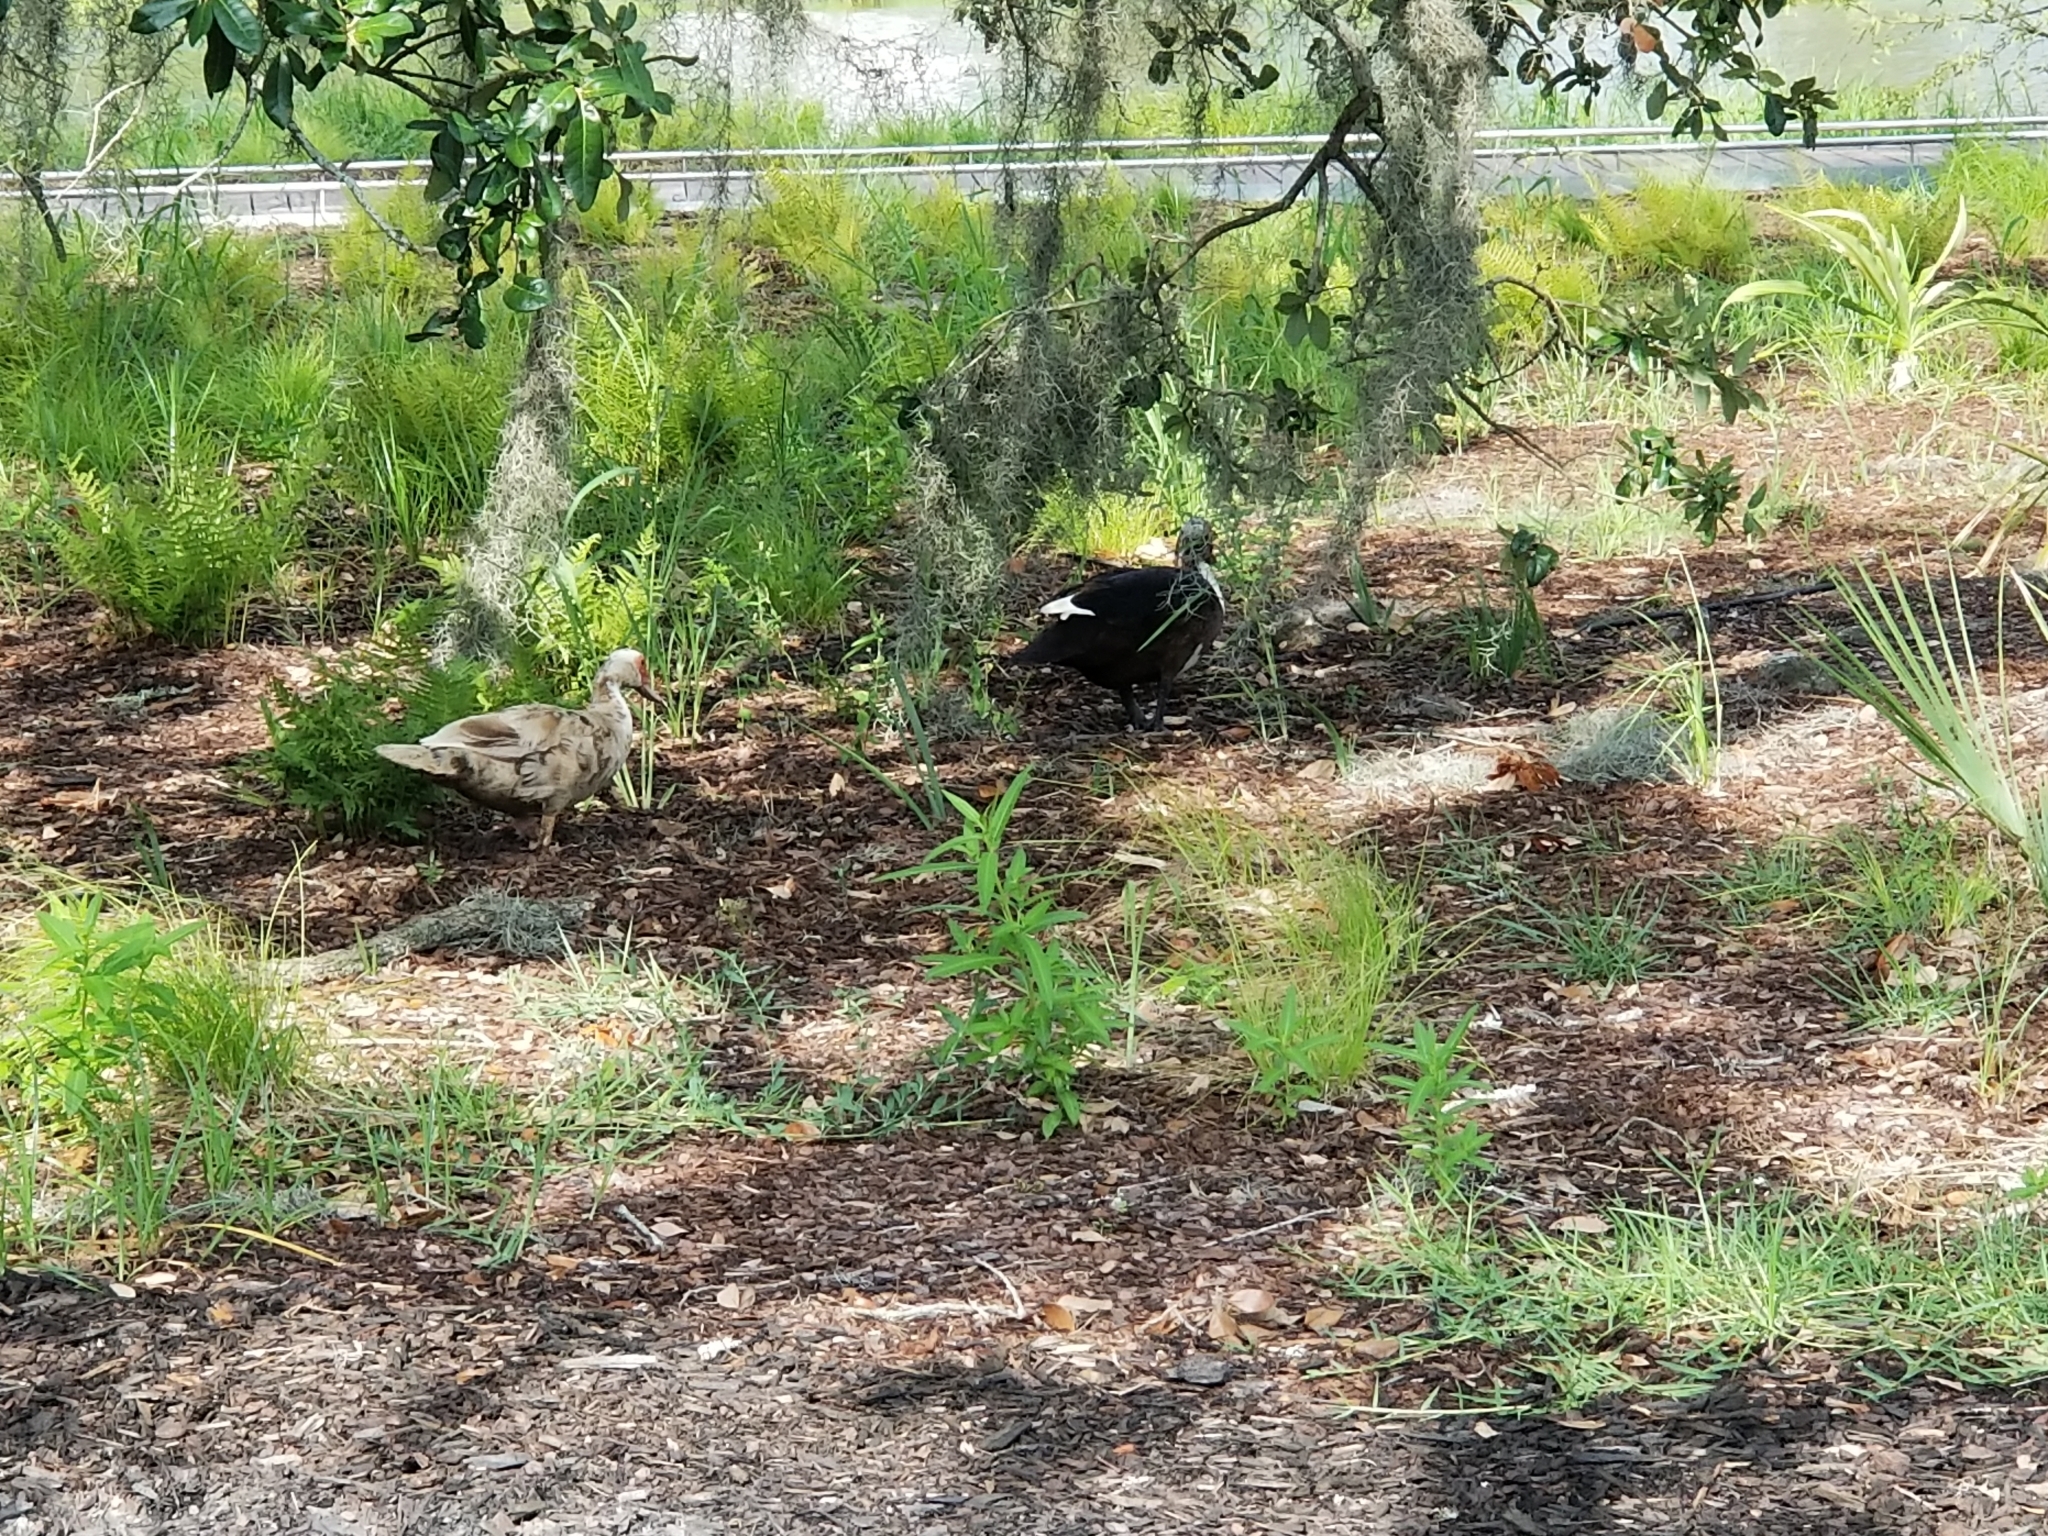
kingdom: Animalia
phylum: Chordata
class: Aves
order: Anseriformes
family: Anatidae
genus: Cairina
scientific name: Cairina moschata
